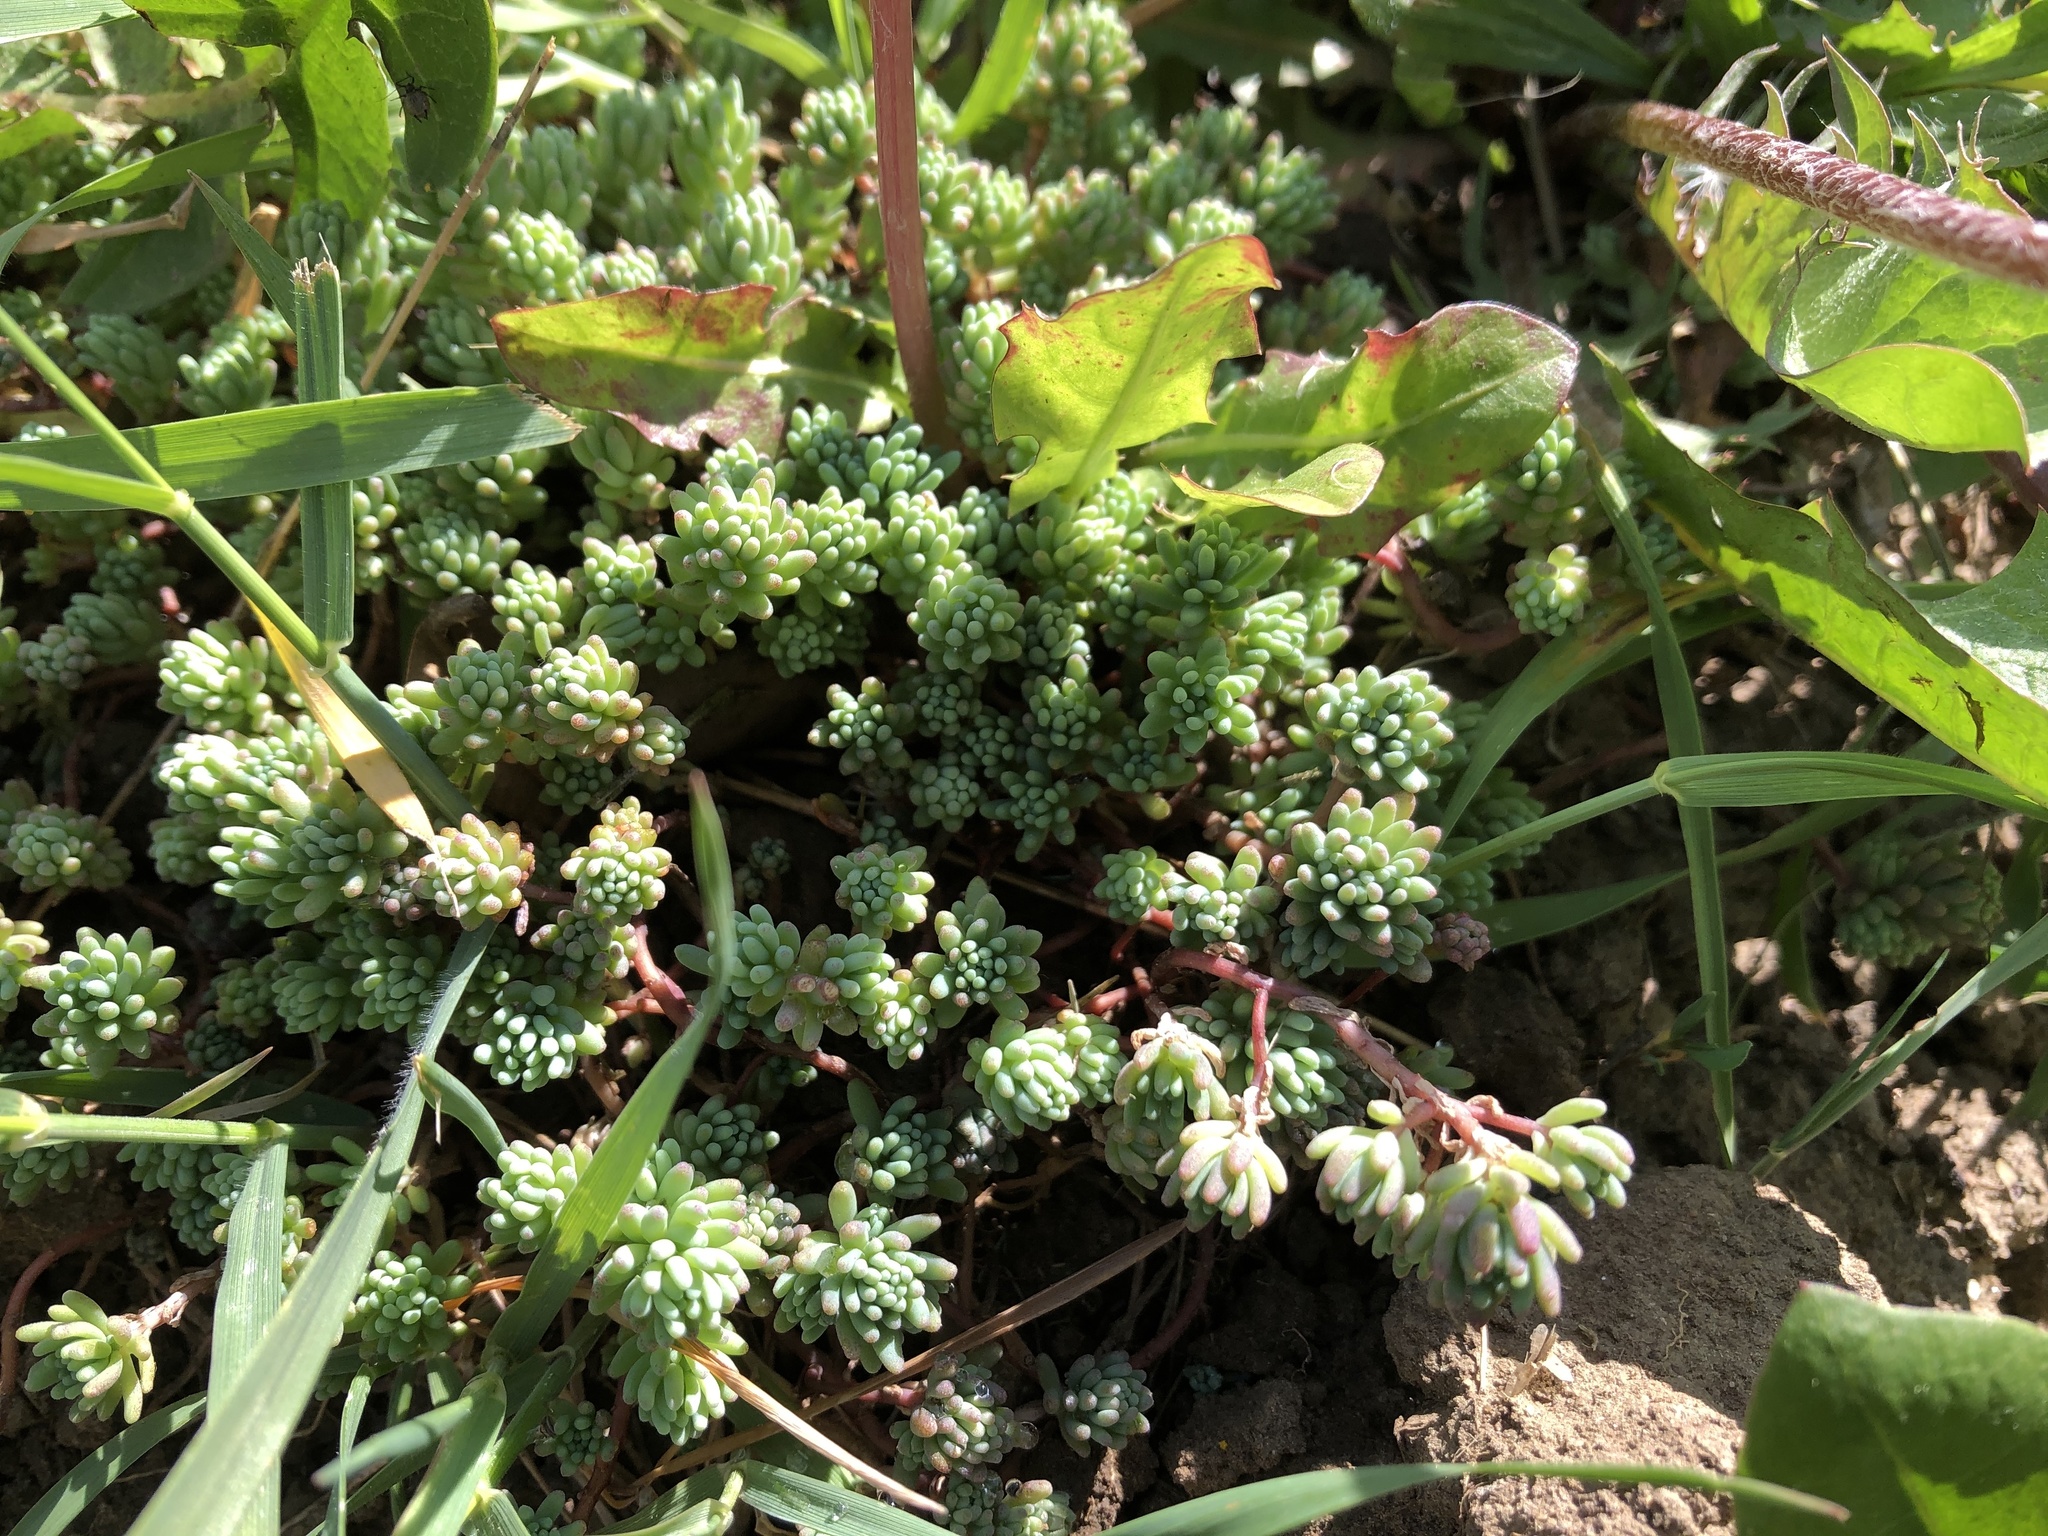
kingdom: Plantae
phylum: Tracheophyta
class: Magnoliopsida
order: Saxifragales
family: Crassulaceae
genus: Sedum
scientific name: Sedum pallidum
